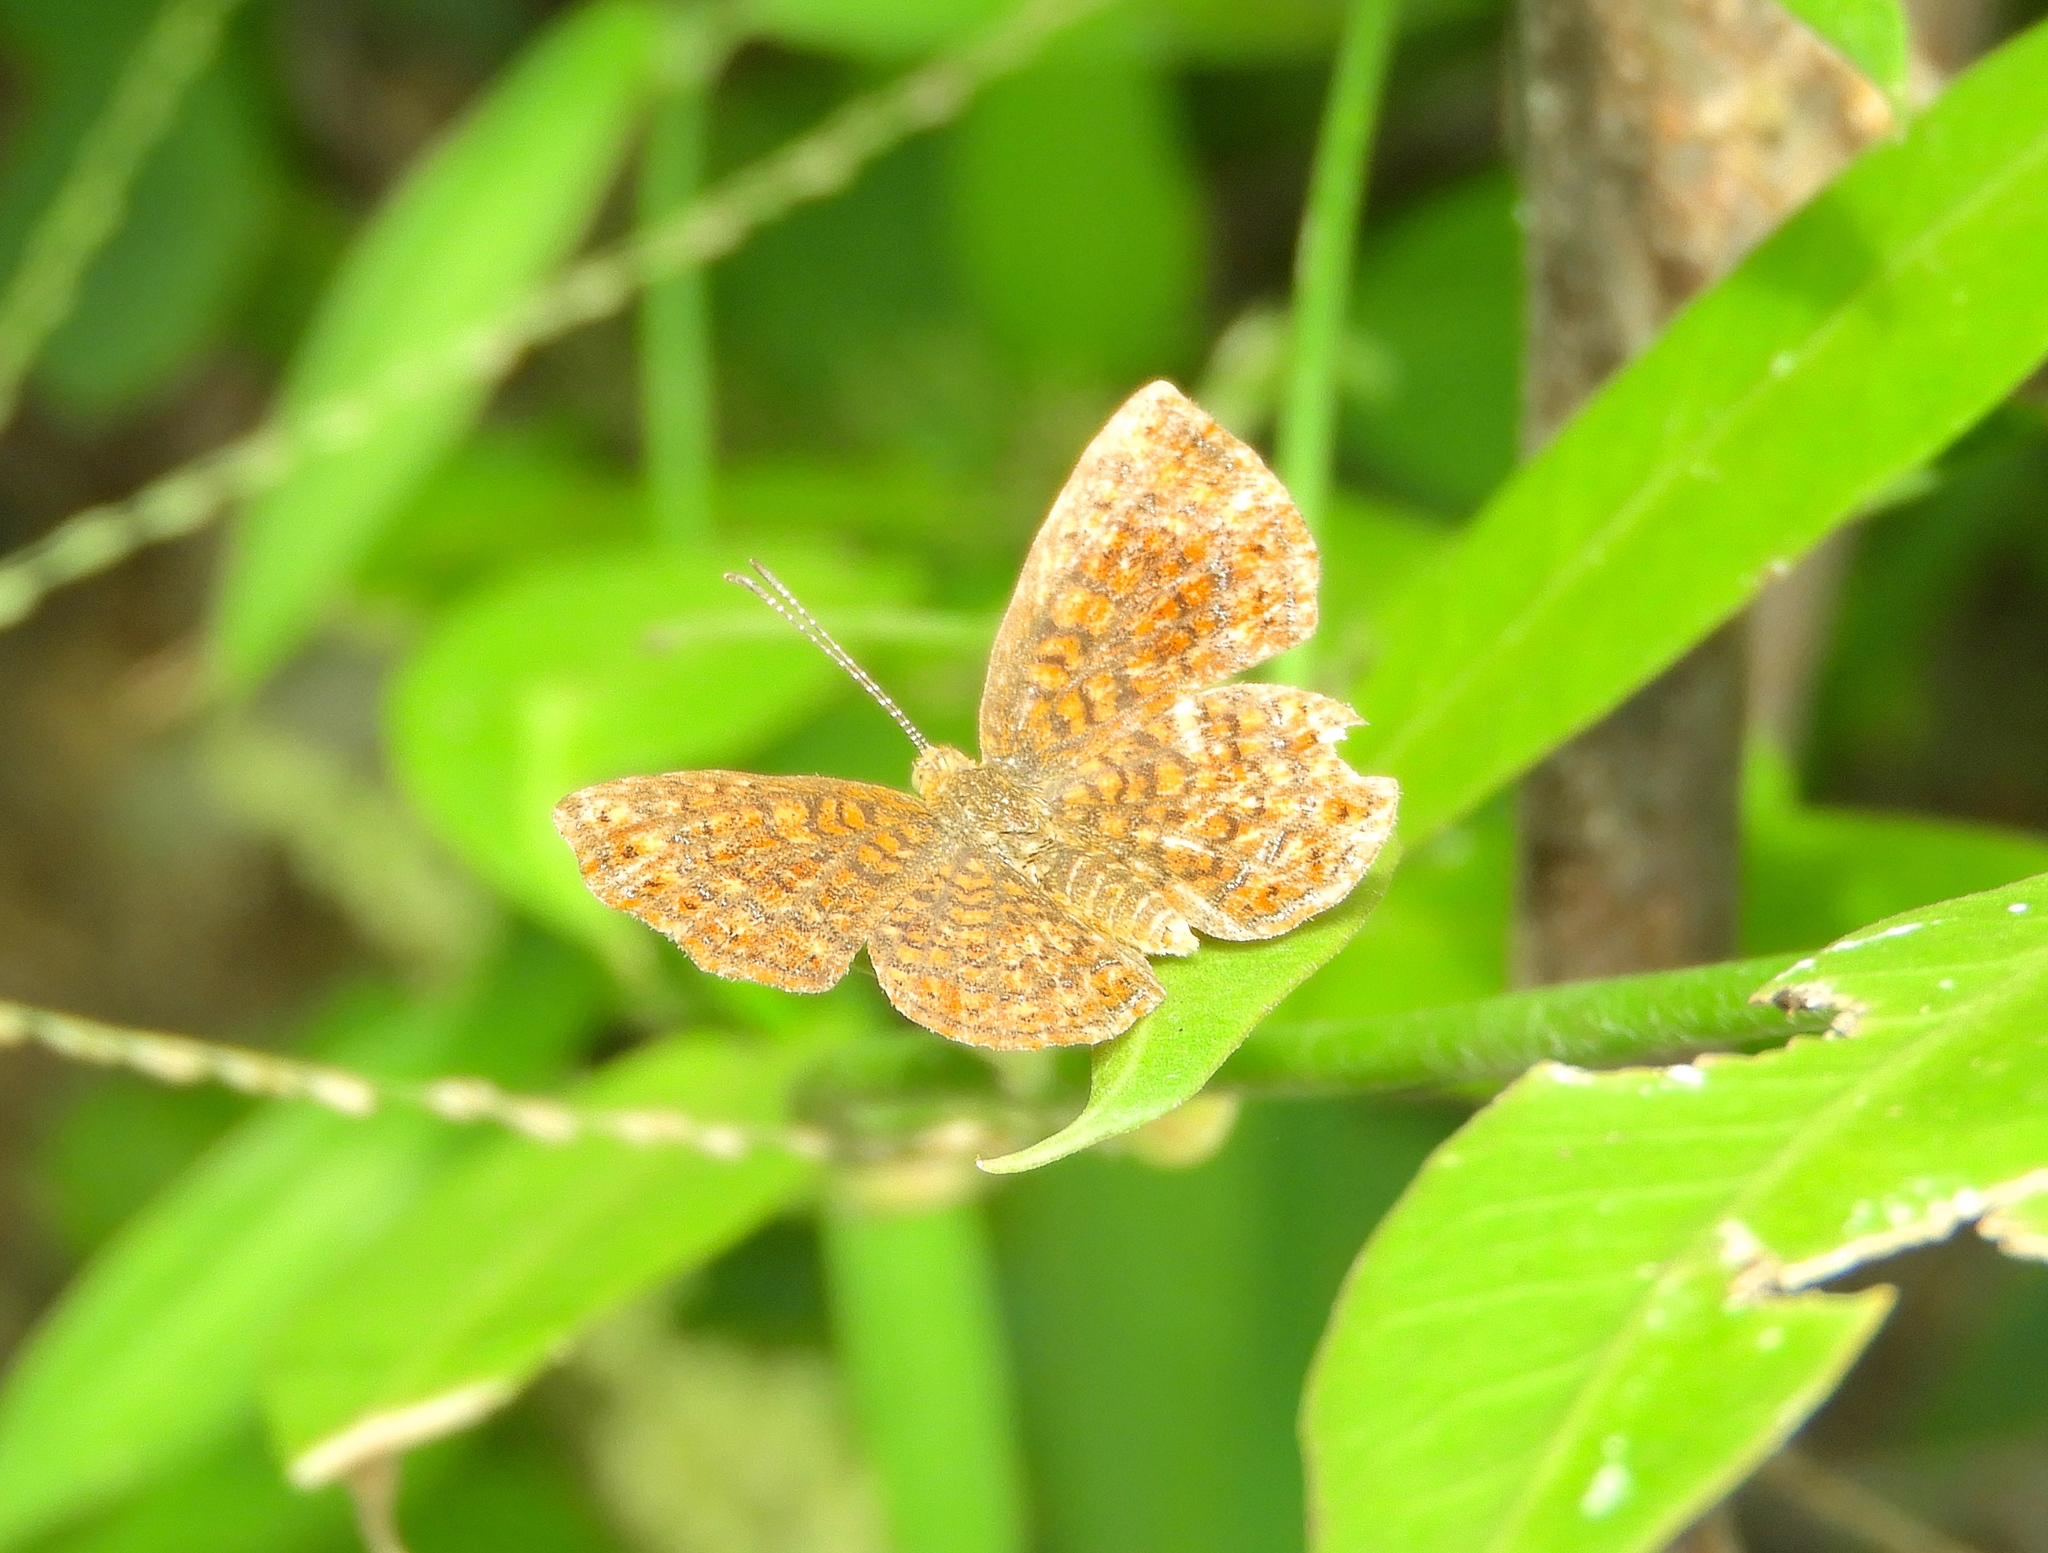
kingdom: Animalia
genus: Calephelis
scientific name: Calephelis
